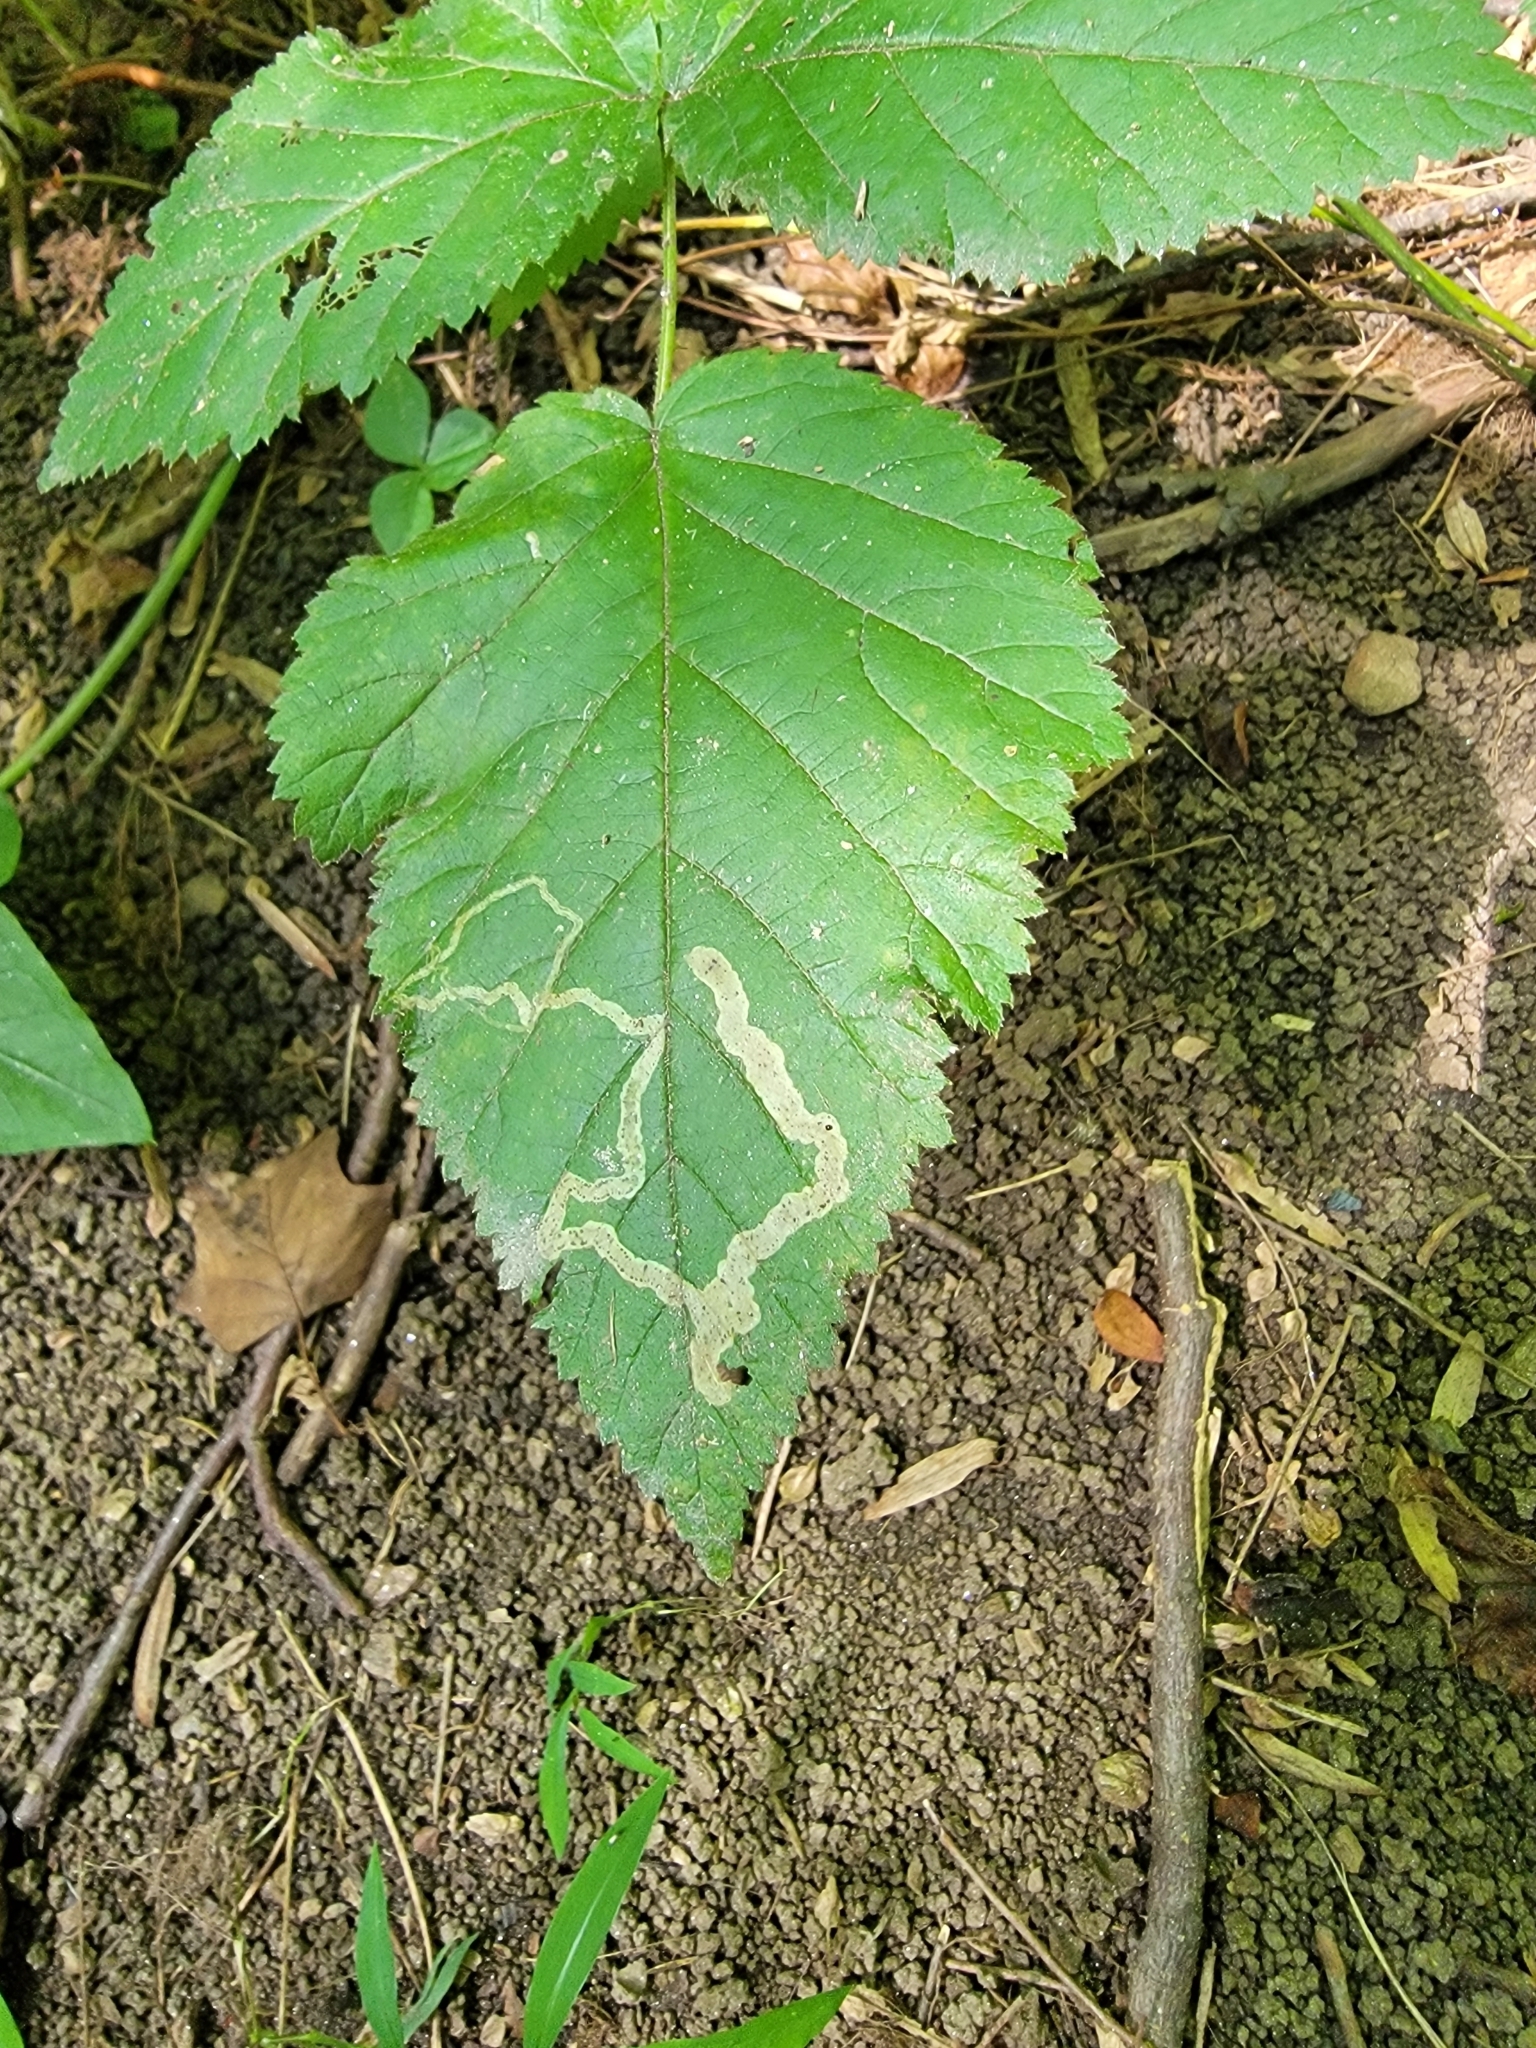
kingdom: Animalia
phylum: Arthropoda
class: Insecta
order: Diptera
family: Agromyzidae
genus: Agromyza
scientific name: Agromyza vockerothi
